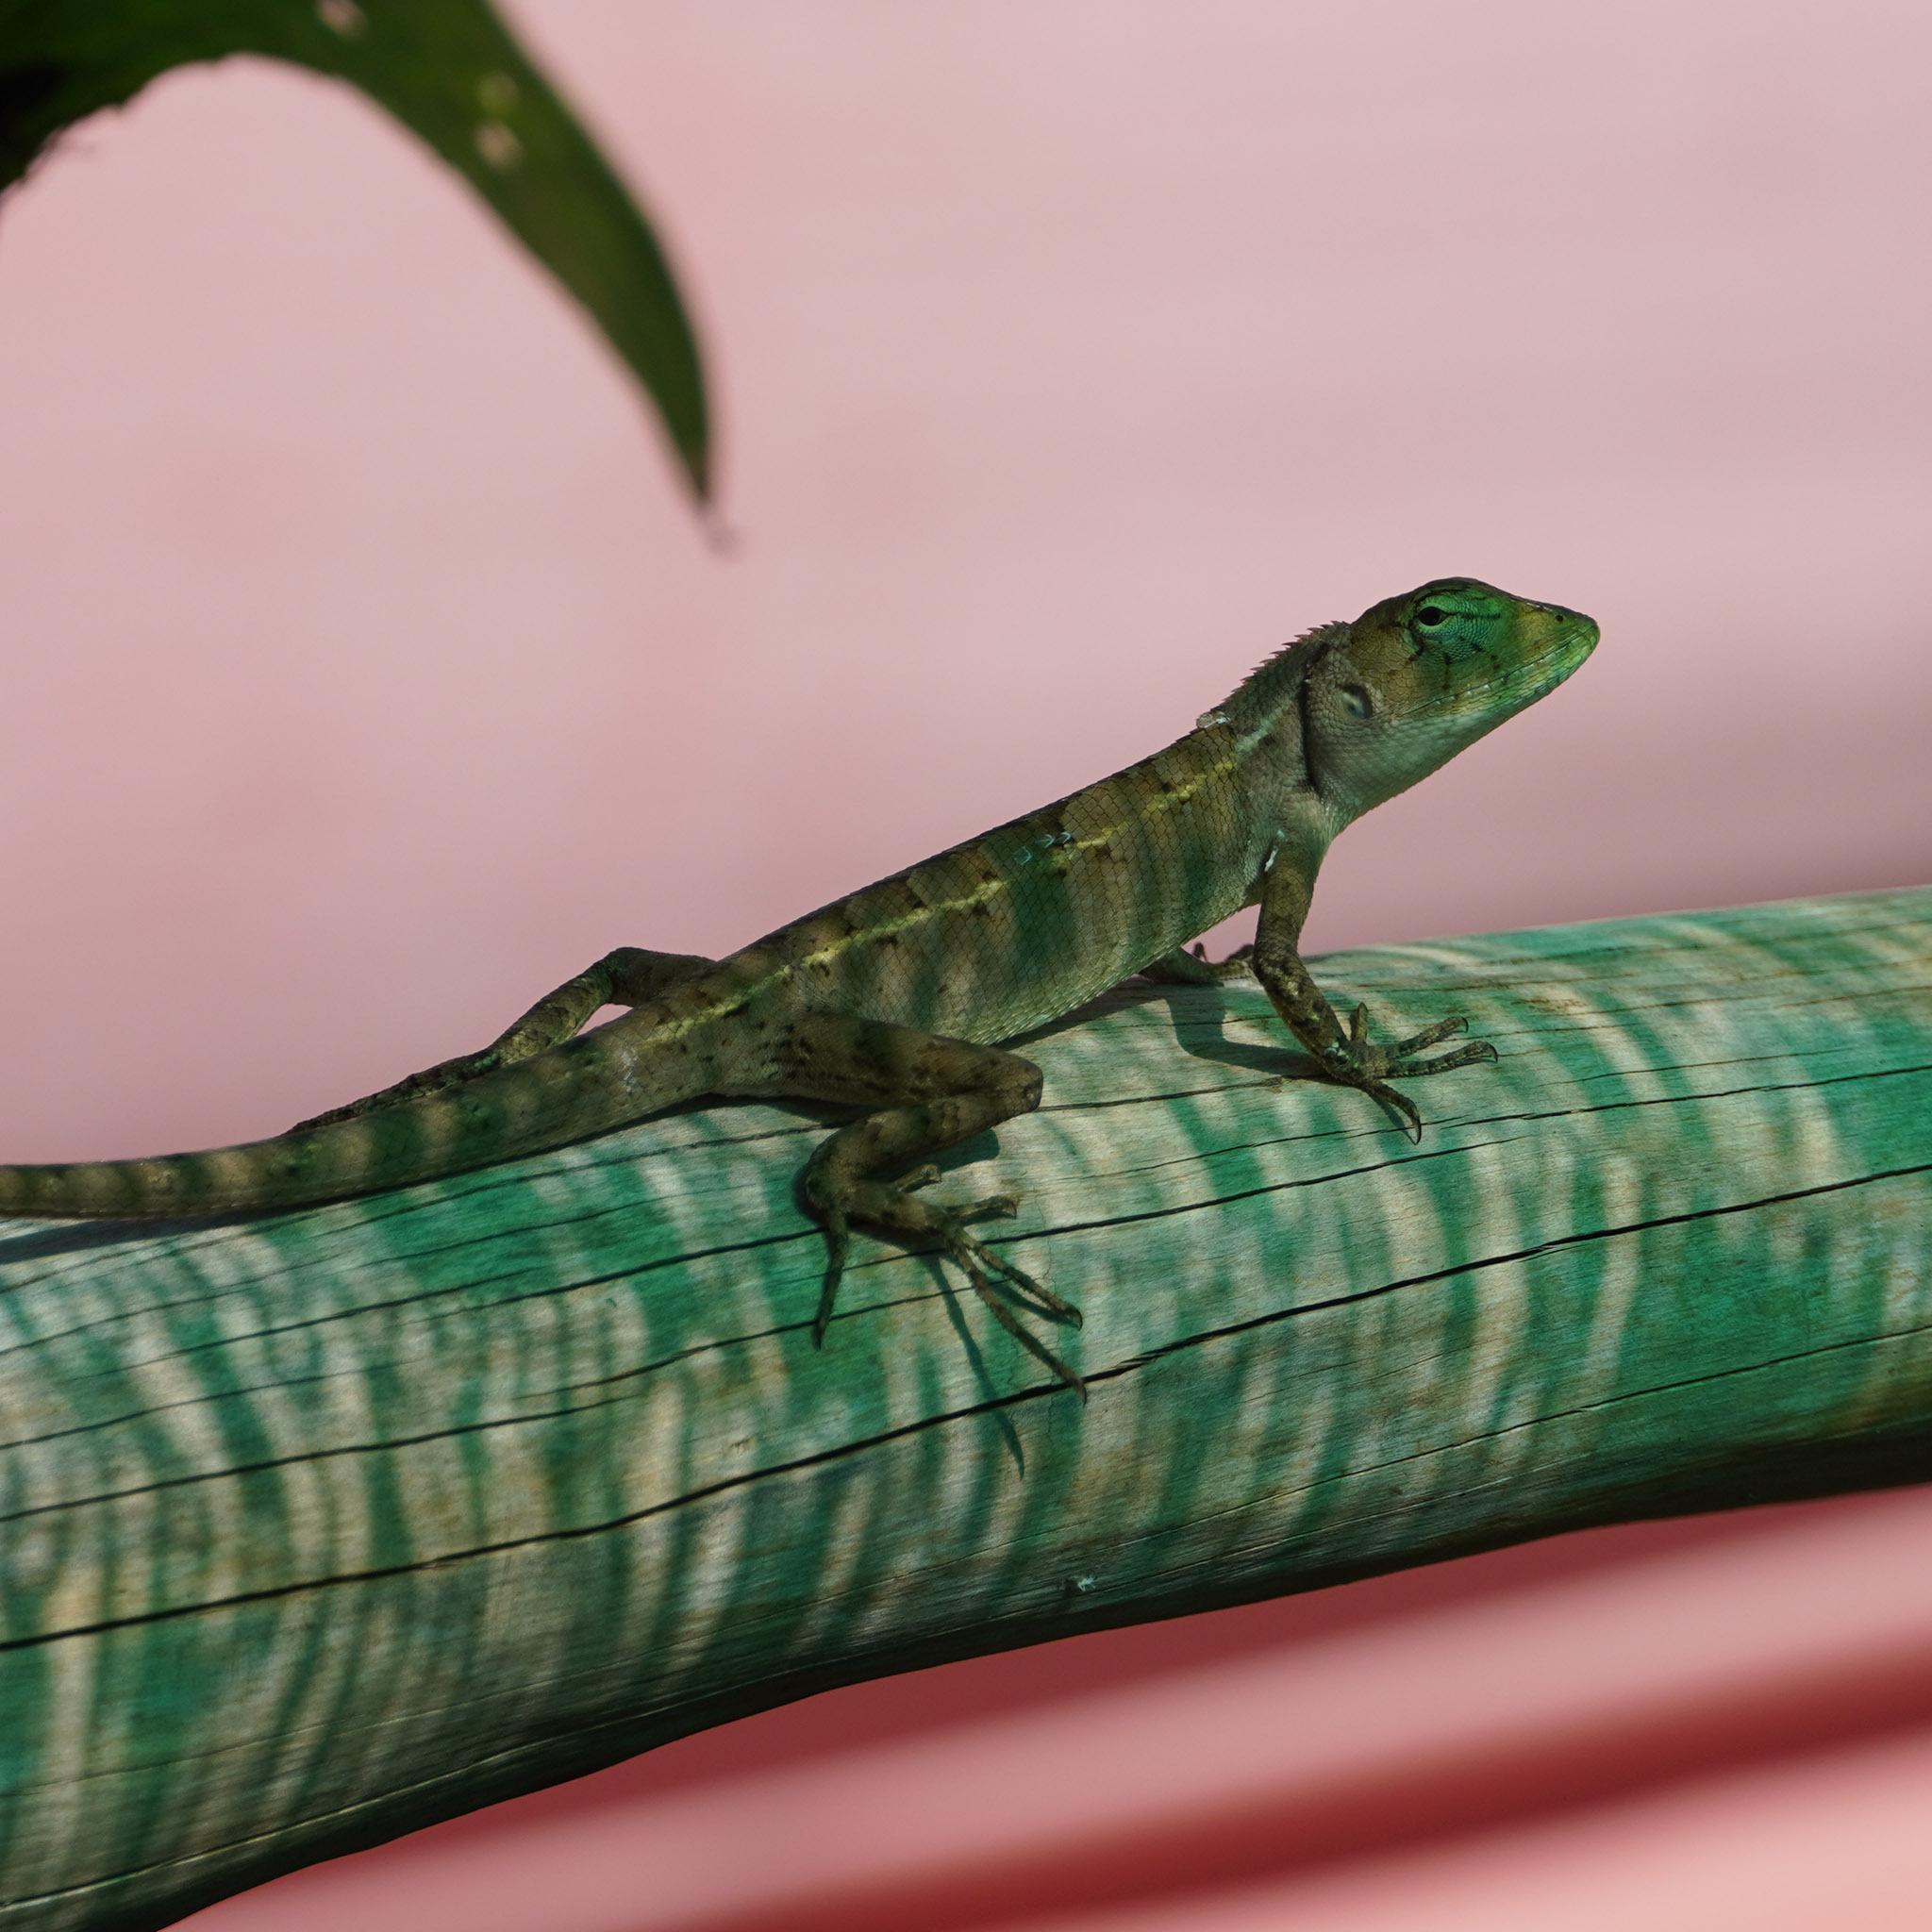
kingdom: Animalia
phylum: Chordata
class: Squamata
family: Agamidae
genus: Calotes
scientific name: Calotes versicolor
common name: Oriental garden lizard
